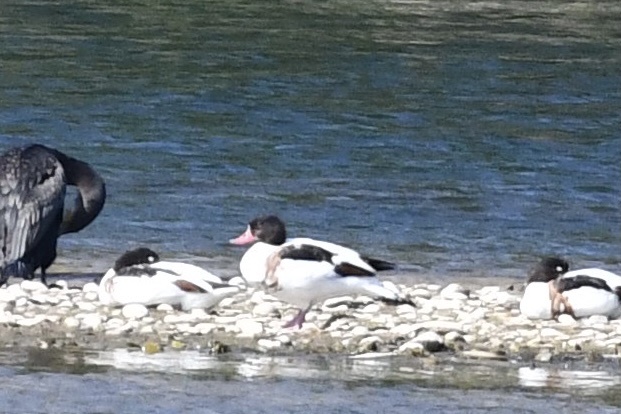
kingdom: Animalia
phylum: Chordata
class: Aves
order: Anseriformes
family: Anatidae
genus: Tadorna
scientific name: Tadorna tadorna
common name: Common shelduck
